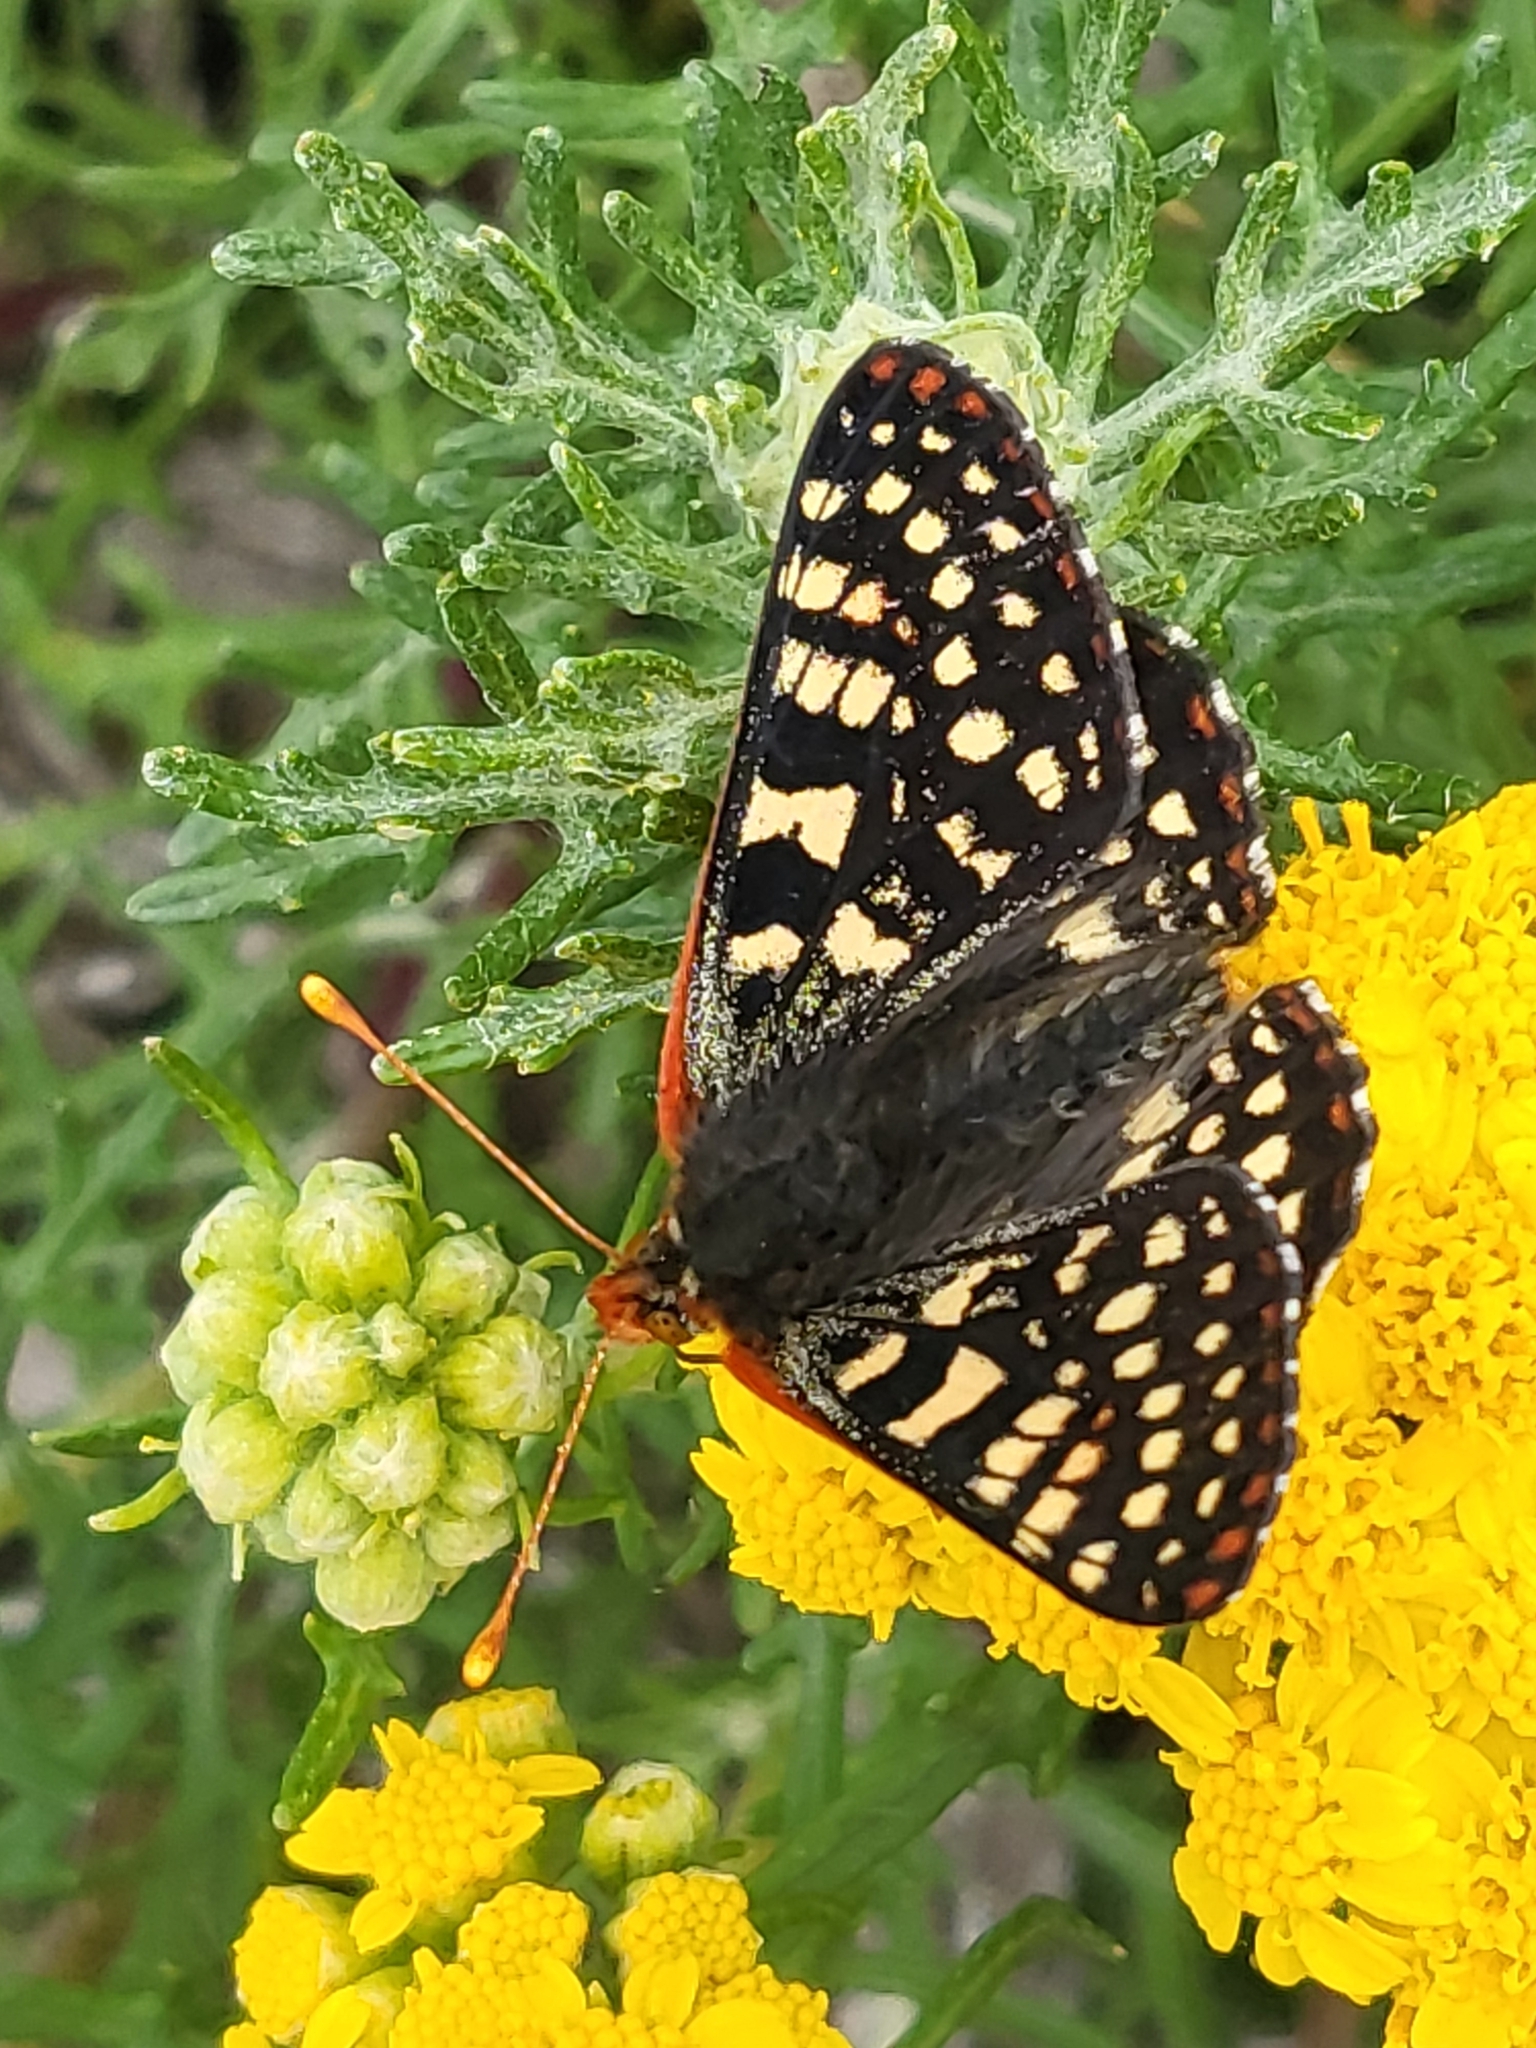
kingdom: Animalia
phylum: Arthropoda
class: Insecta
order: Lepidoptera
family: Nymphalidae
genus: Occidryas
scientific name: Occidryas chalcedona
